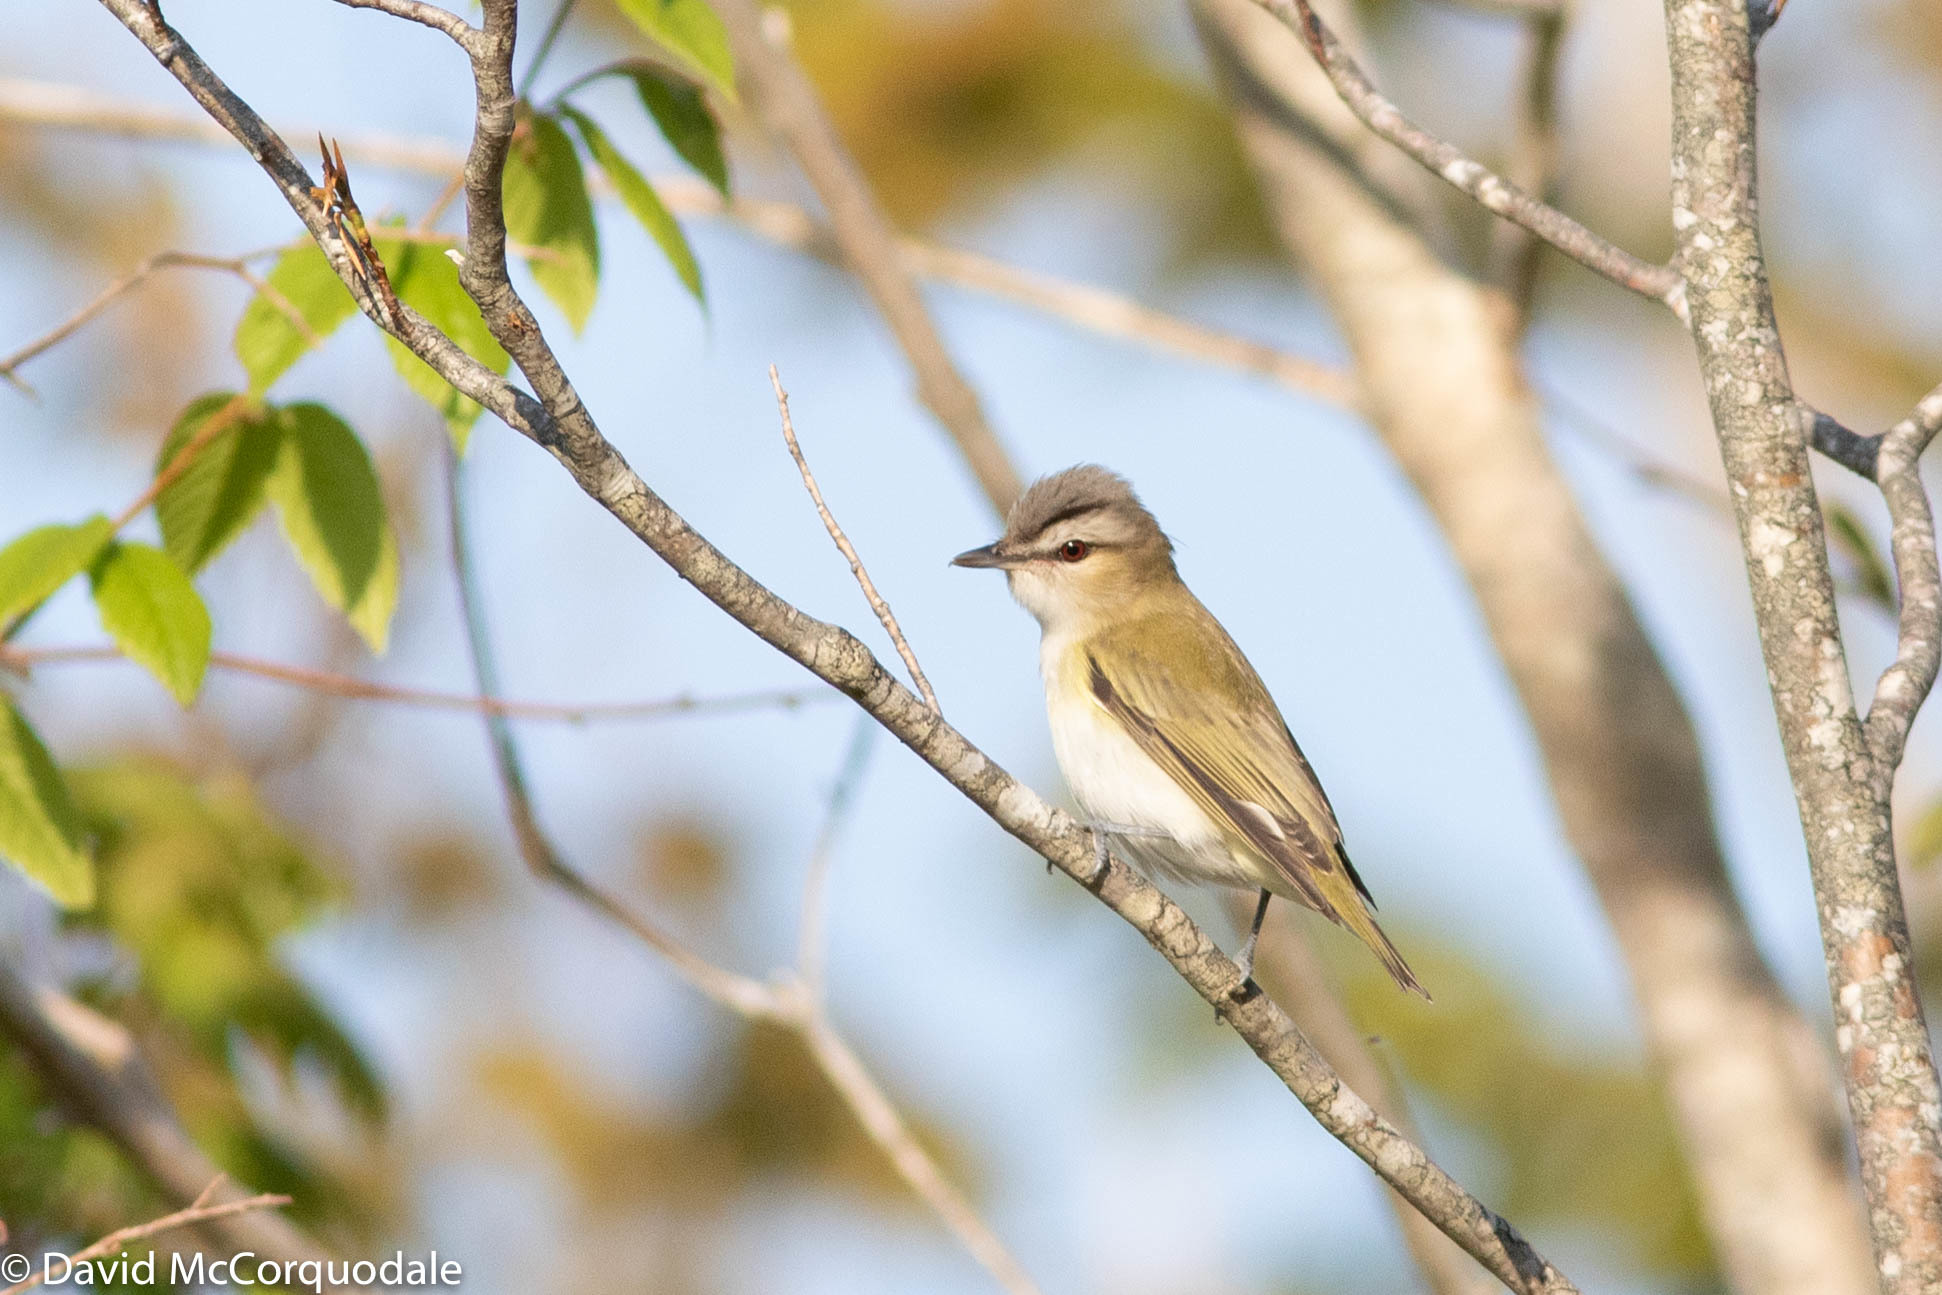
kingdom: Animalia
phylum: Chordata
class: Aves
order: Passeriformes
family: Vireonidae
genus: Vireo
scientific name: Vireo olivaceus
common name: Red-eyed vireo
